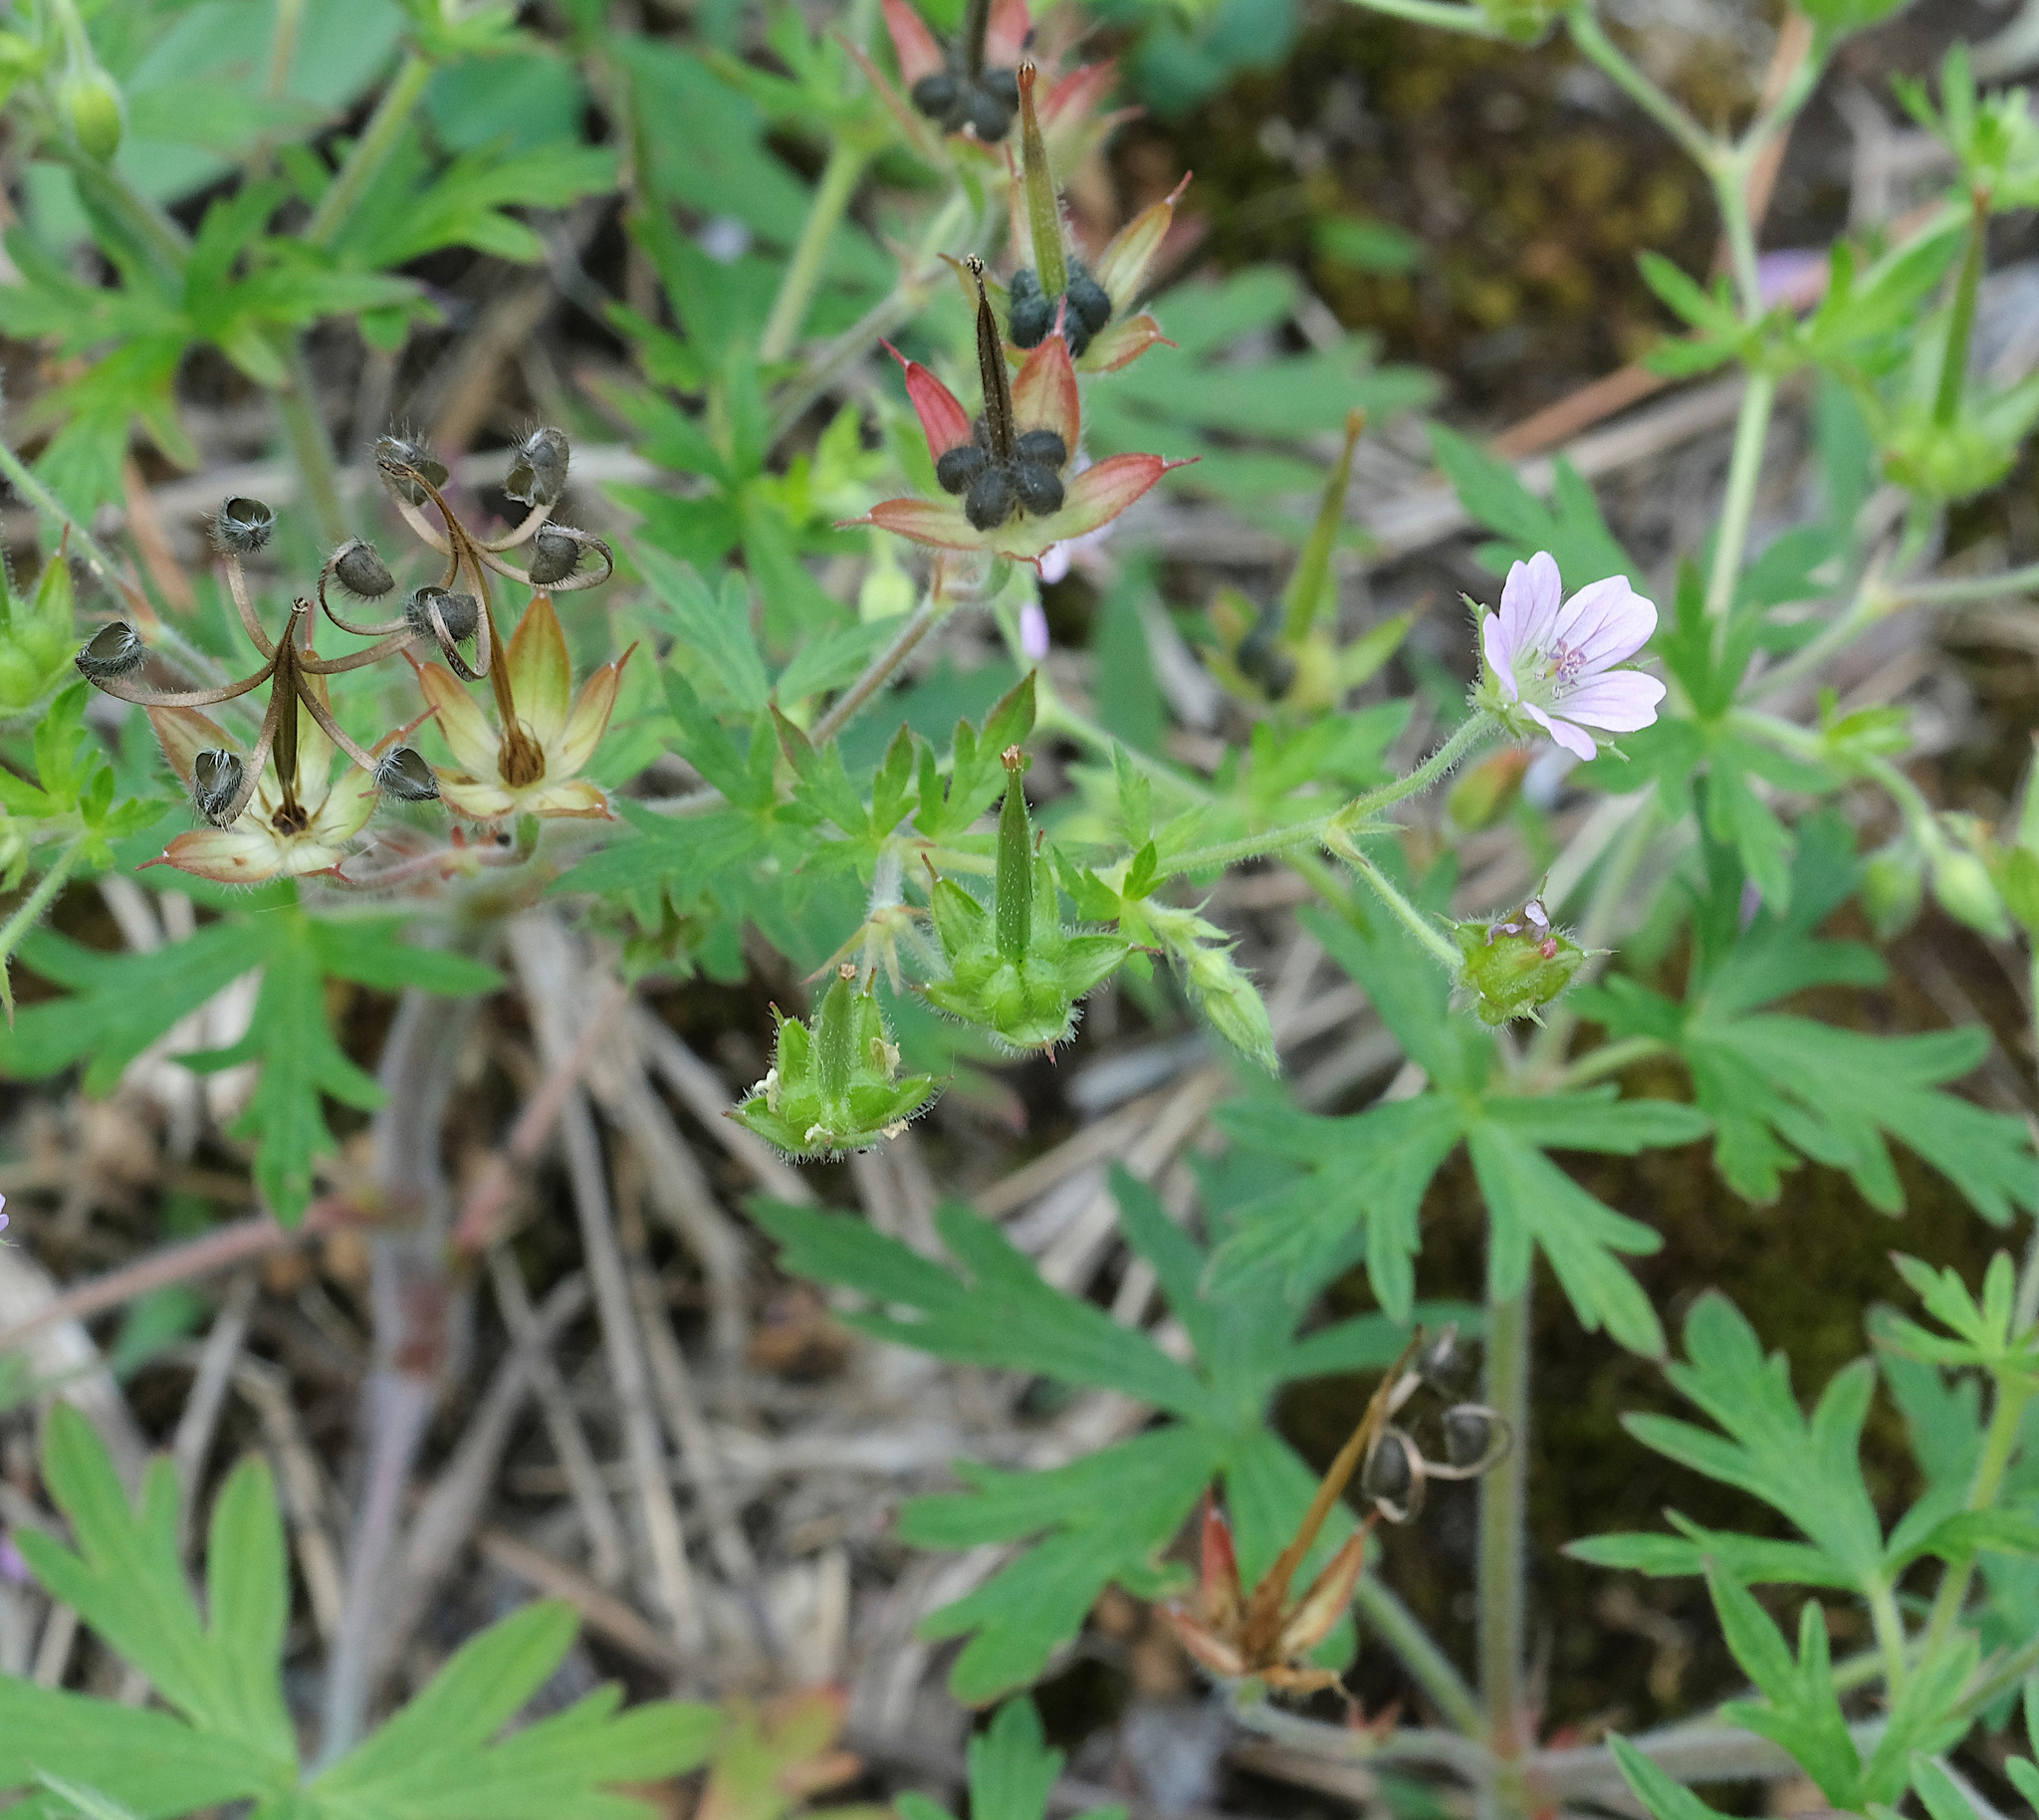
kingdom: Plantae
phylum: Tracheophyta
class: Magnoliopsida
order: Geraniales
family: Geraniaceae
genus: Geranium
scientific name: Geranium bicknellii
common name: Bicknell's cranesbill
